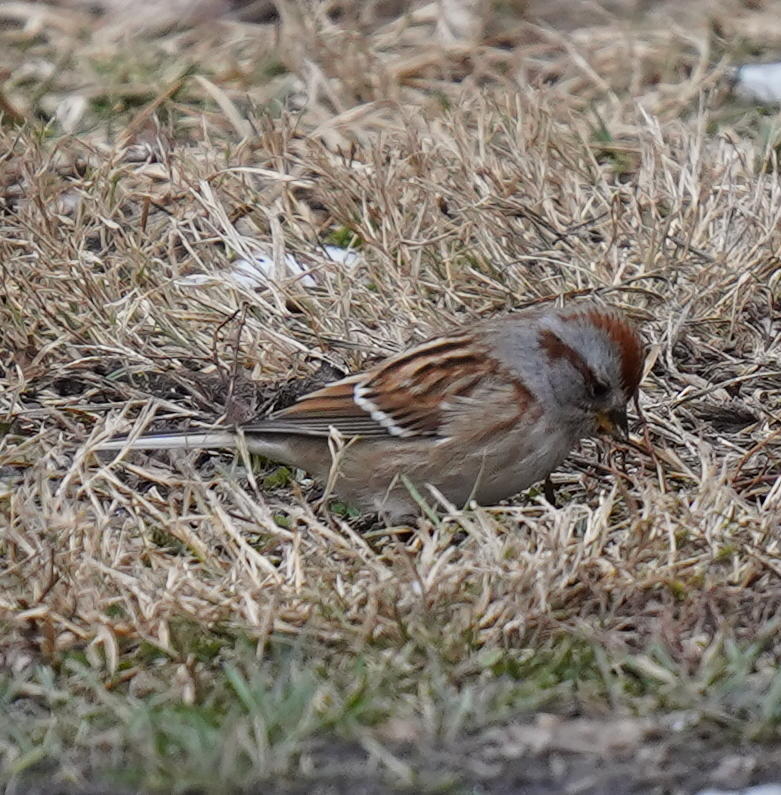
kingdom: Animalia
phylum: Chordata
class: Aves
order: Passeriformes
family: Passerellidae
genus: Spizelloides
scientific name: Spizelloides arborea
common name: American tree sparrow
